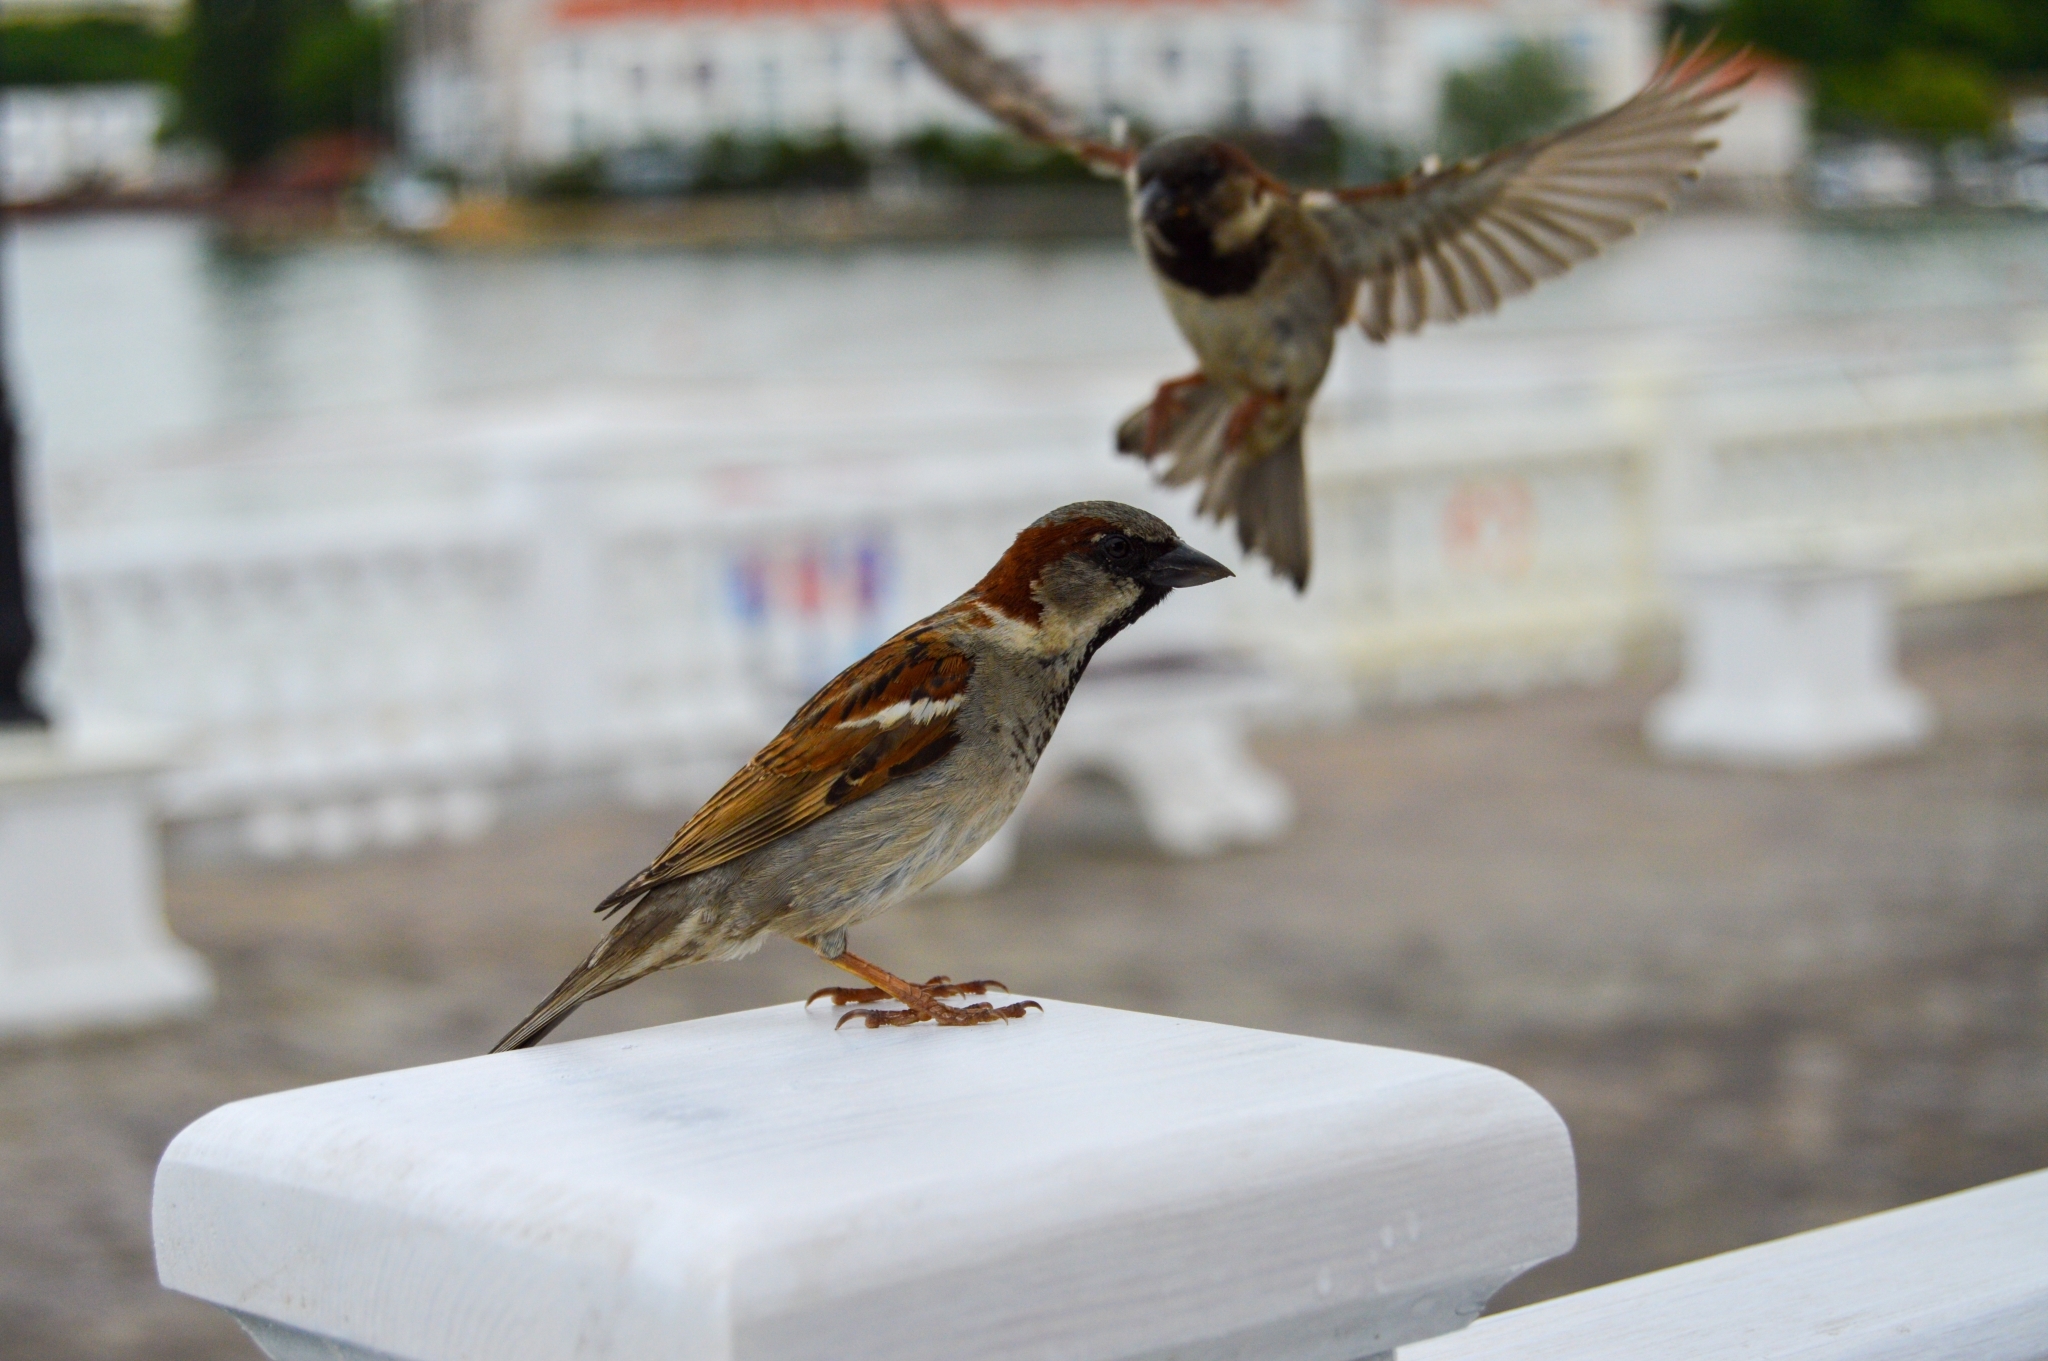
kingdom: Animalia
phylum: Chordata
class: Aves
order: Passeriformes
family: Passeridae
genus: Passer
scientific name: Passer domesticus
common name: House sparrow
